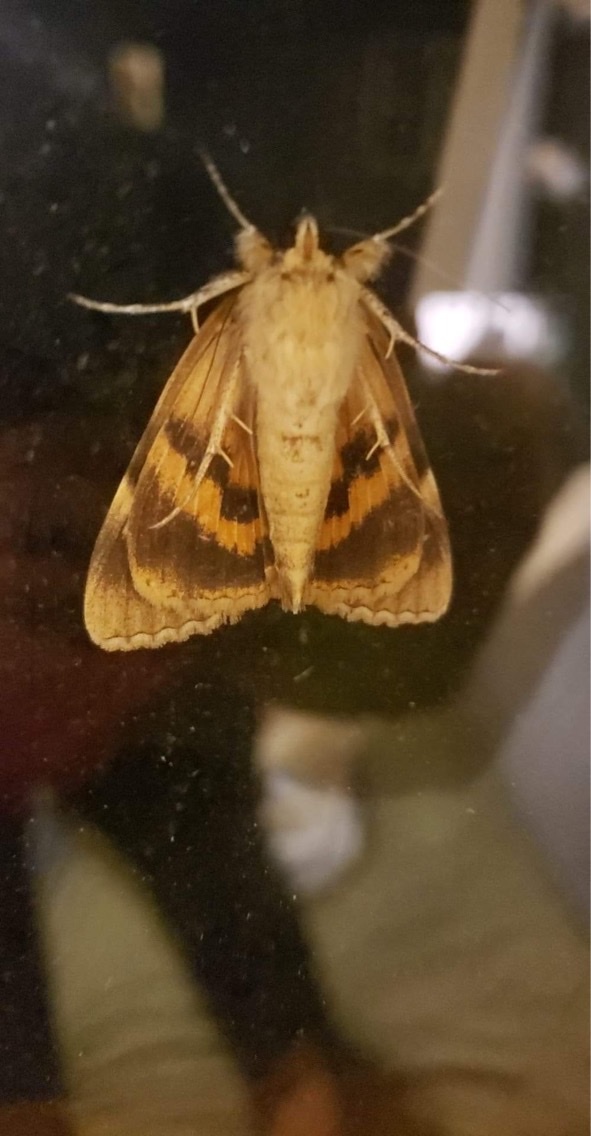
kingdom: Animalia
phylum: Arthropoda
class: Insecta
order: Lepidoptera
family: Erebidae
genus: Catocala
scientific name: Catocala cerogama
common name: Yellow banded underwing
